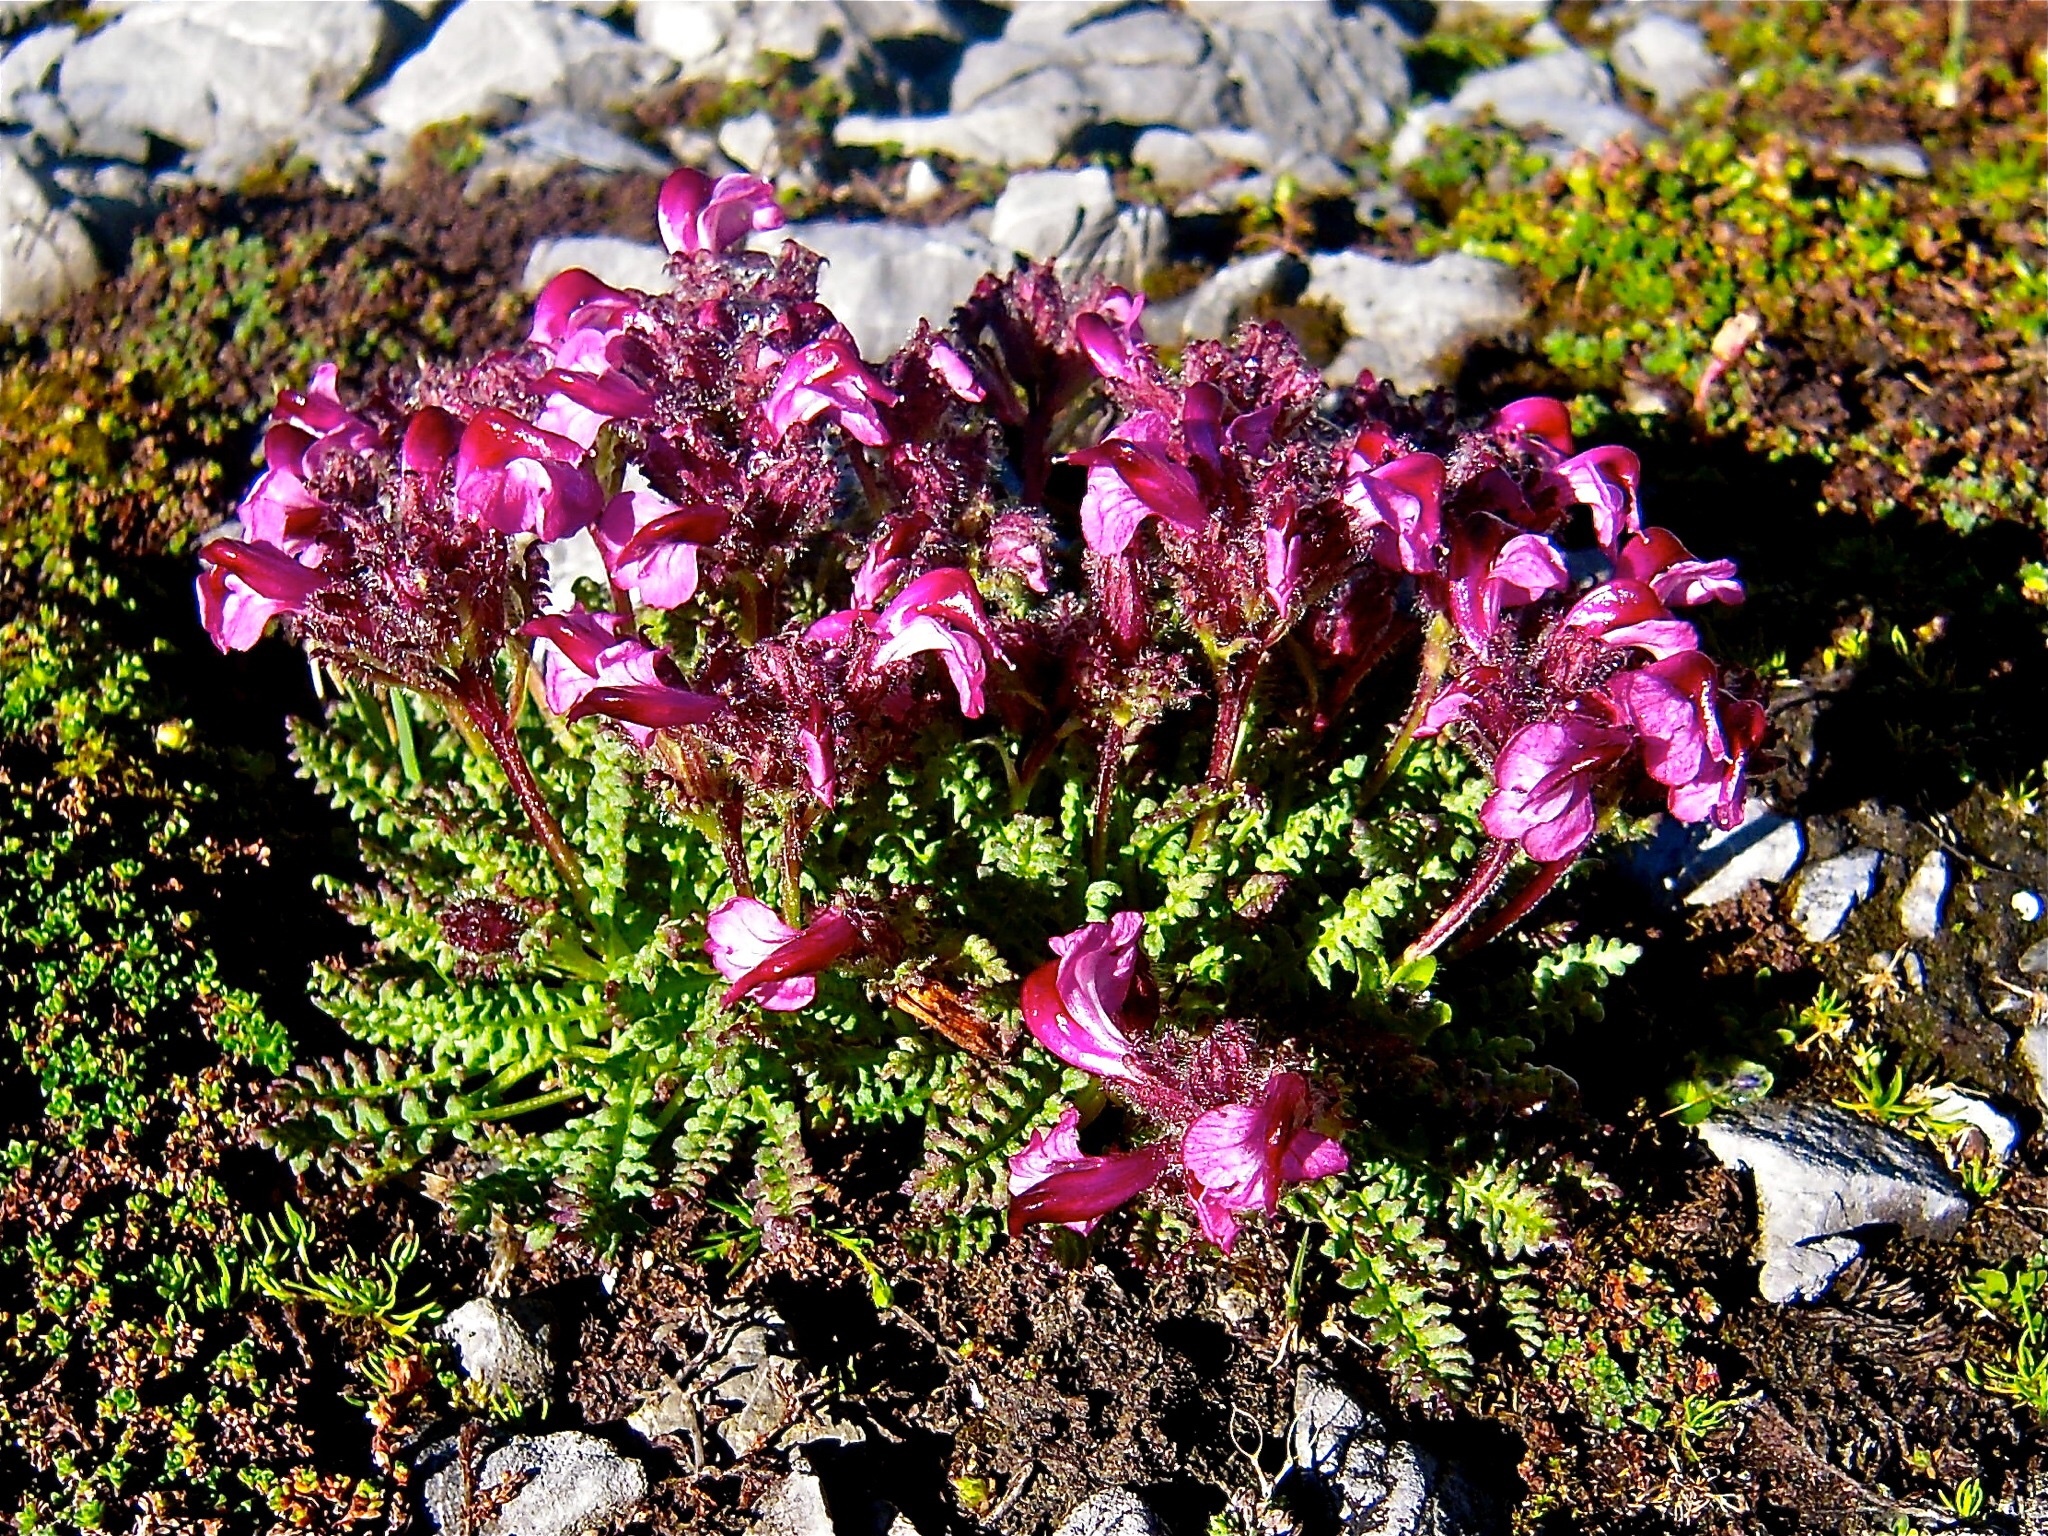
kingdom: Plantae
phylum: Tracheophyta
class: Magnoliopsida
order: Lamiales
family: Orobanchaceae
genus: Pedicularis
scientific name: Pedicularis asplenifolia
